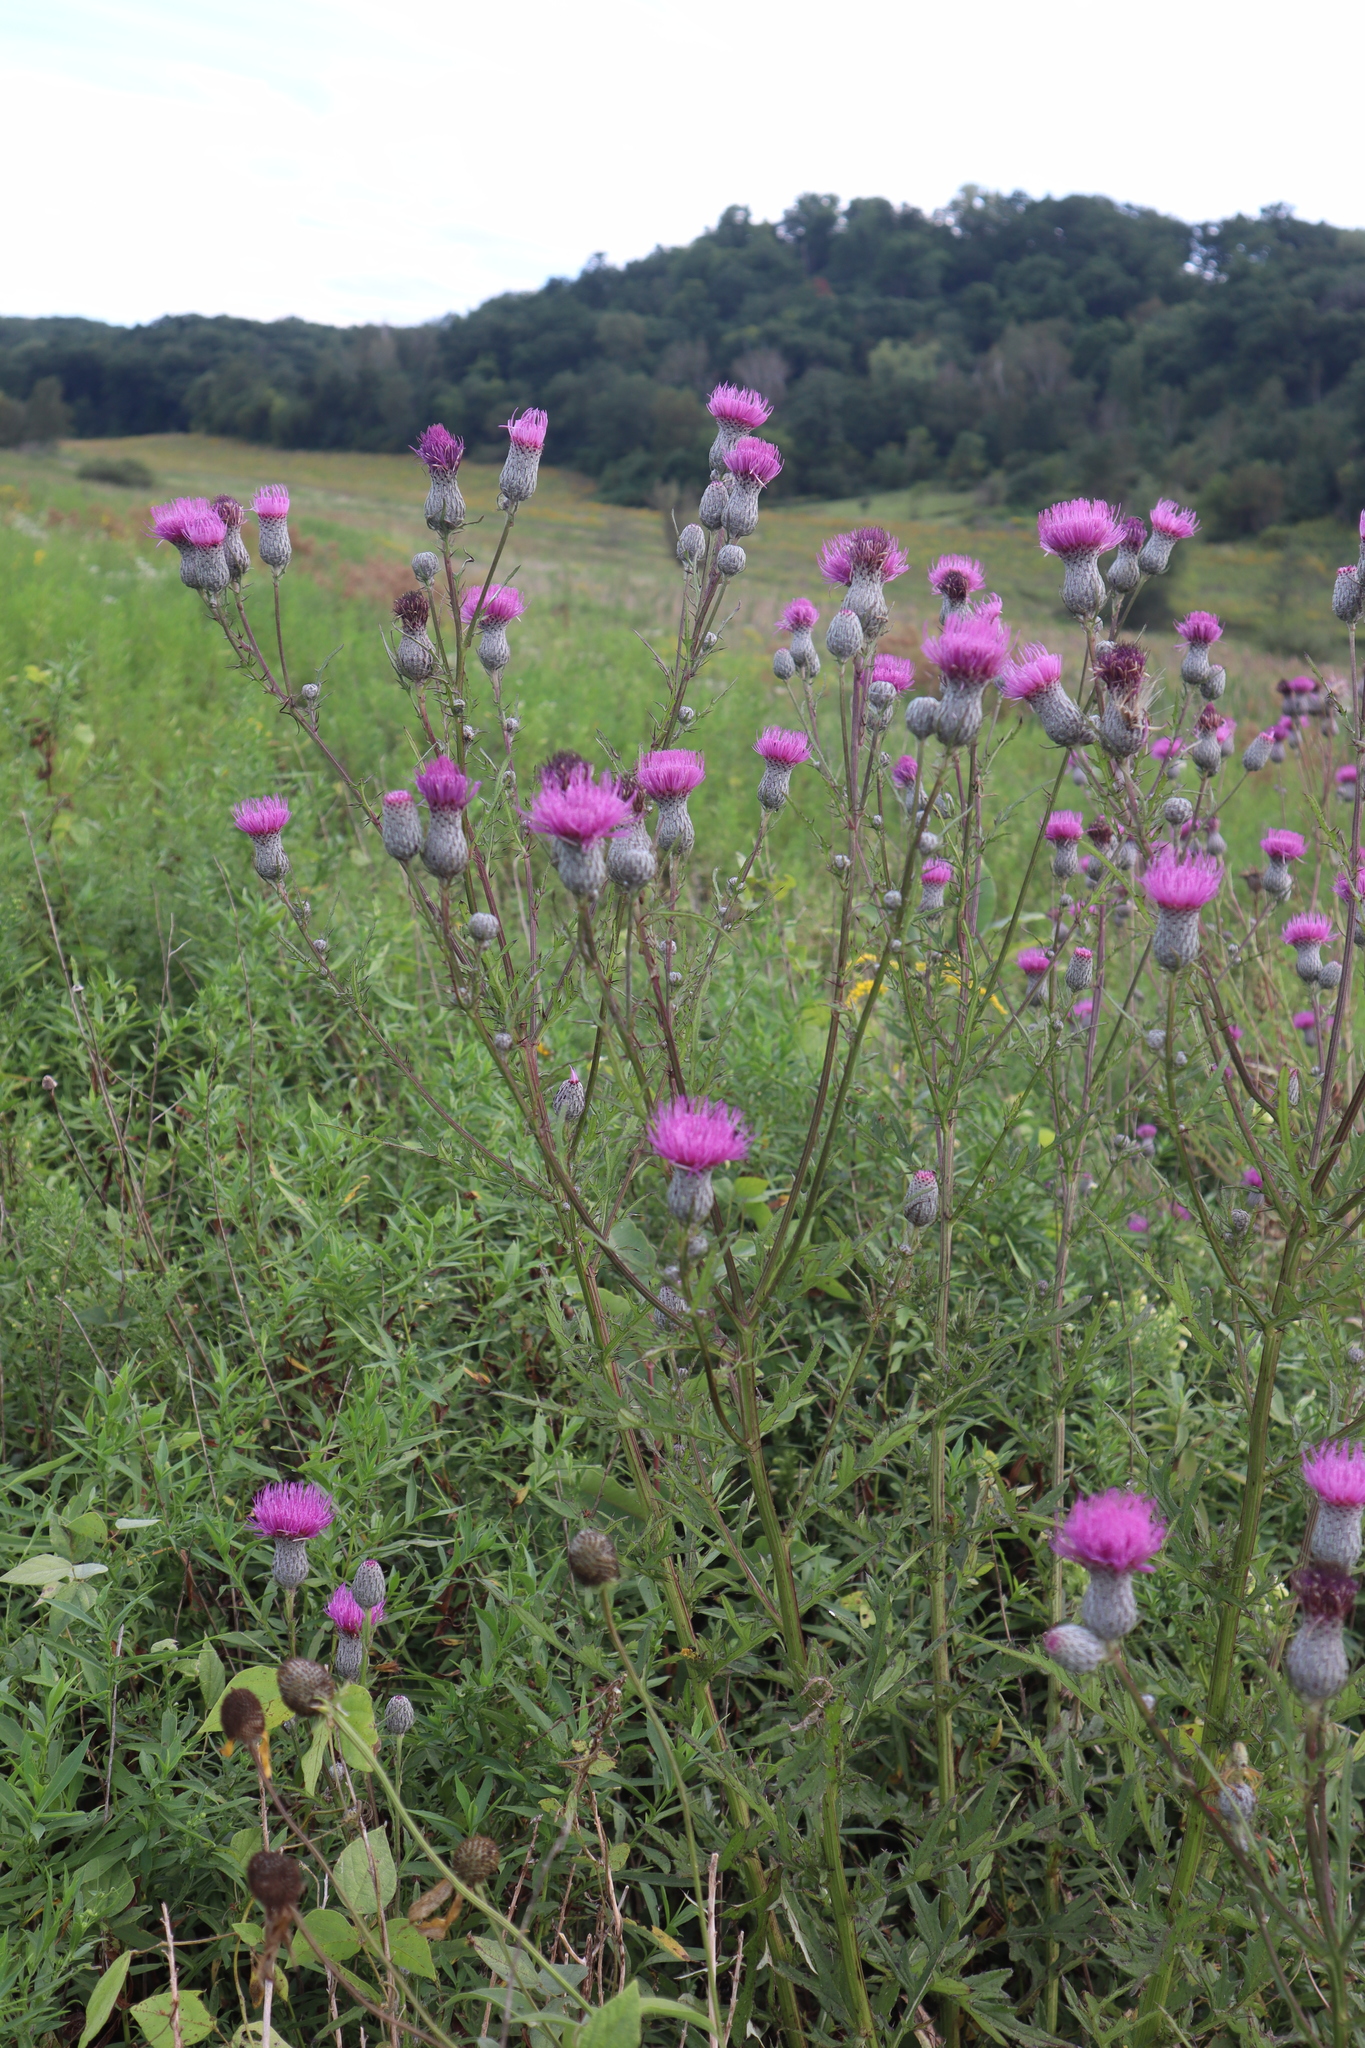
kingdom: Plantae
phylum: Tracheophyta
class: Magnoliopsida
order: Asterales
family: Asteraceae
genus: Cirsium
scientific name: Cirsium muticum
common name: Dunce-nettle
